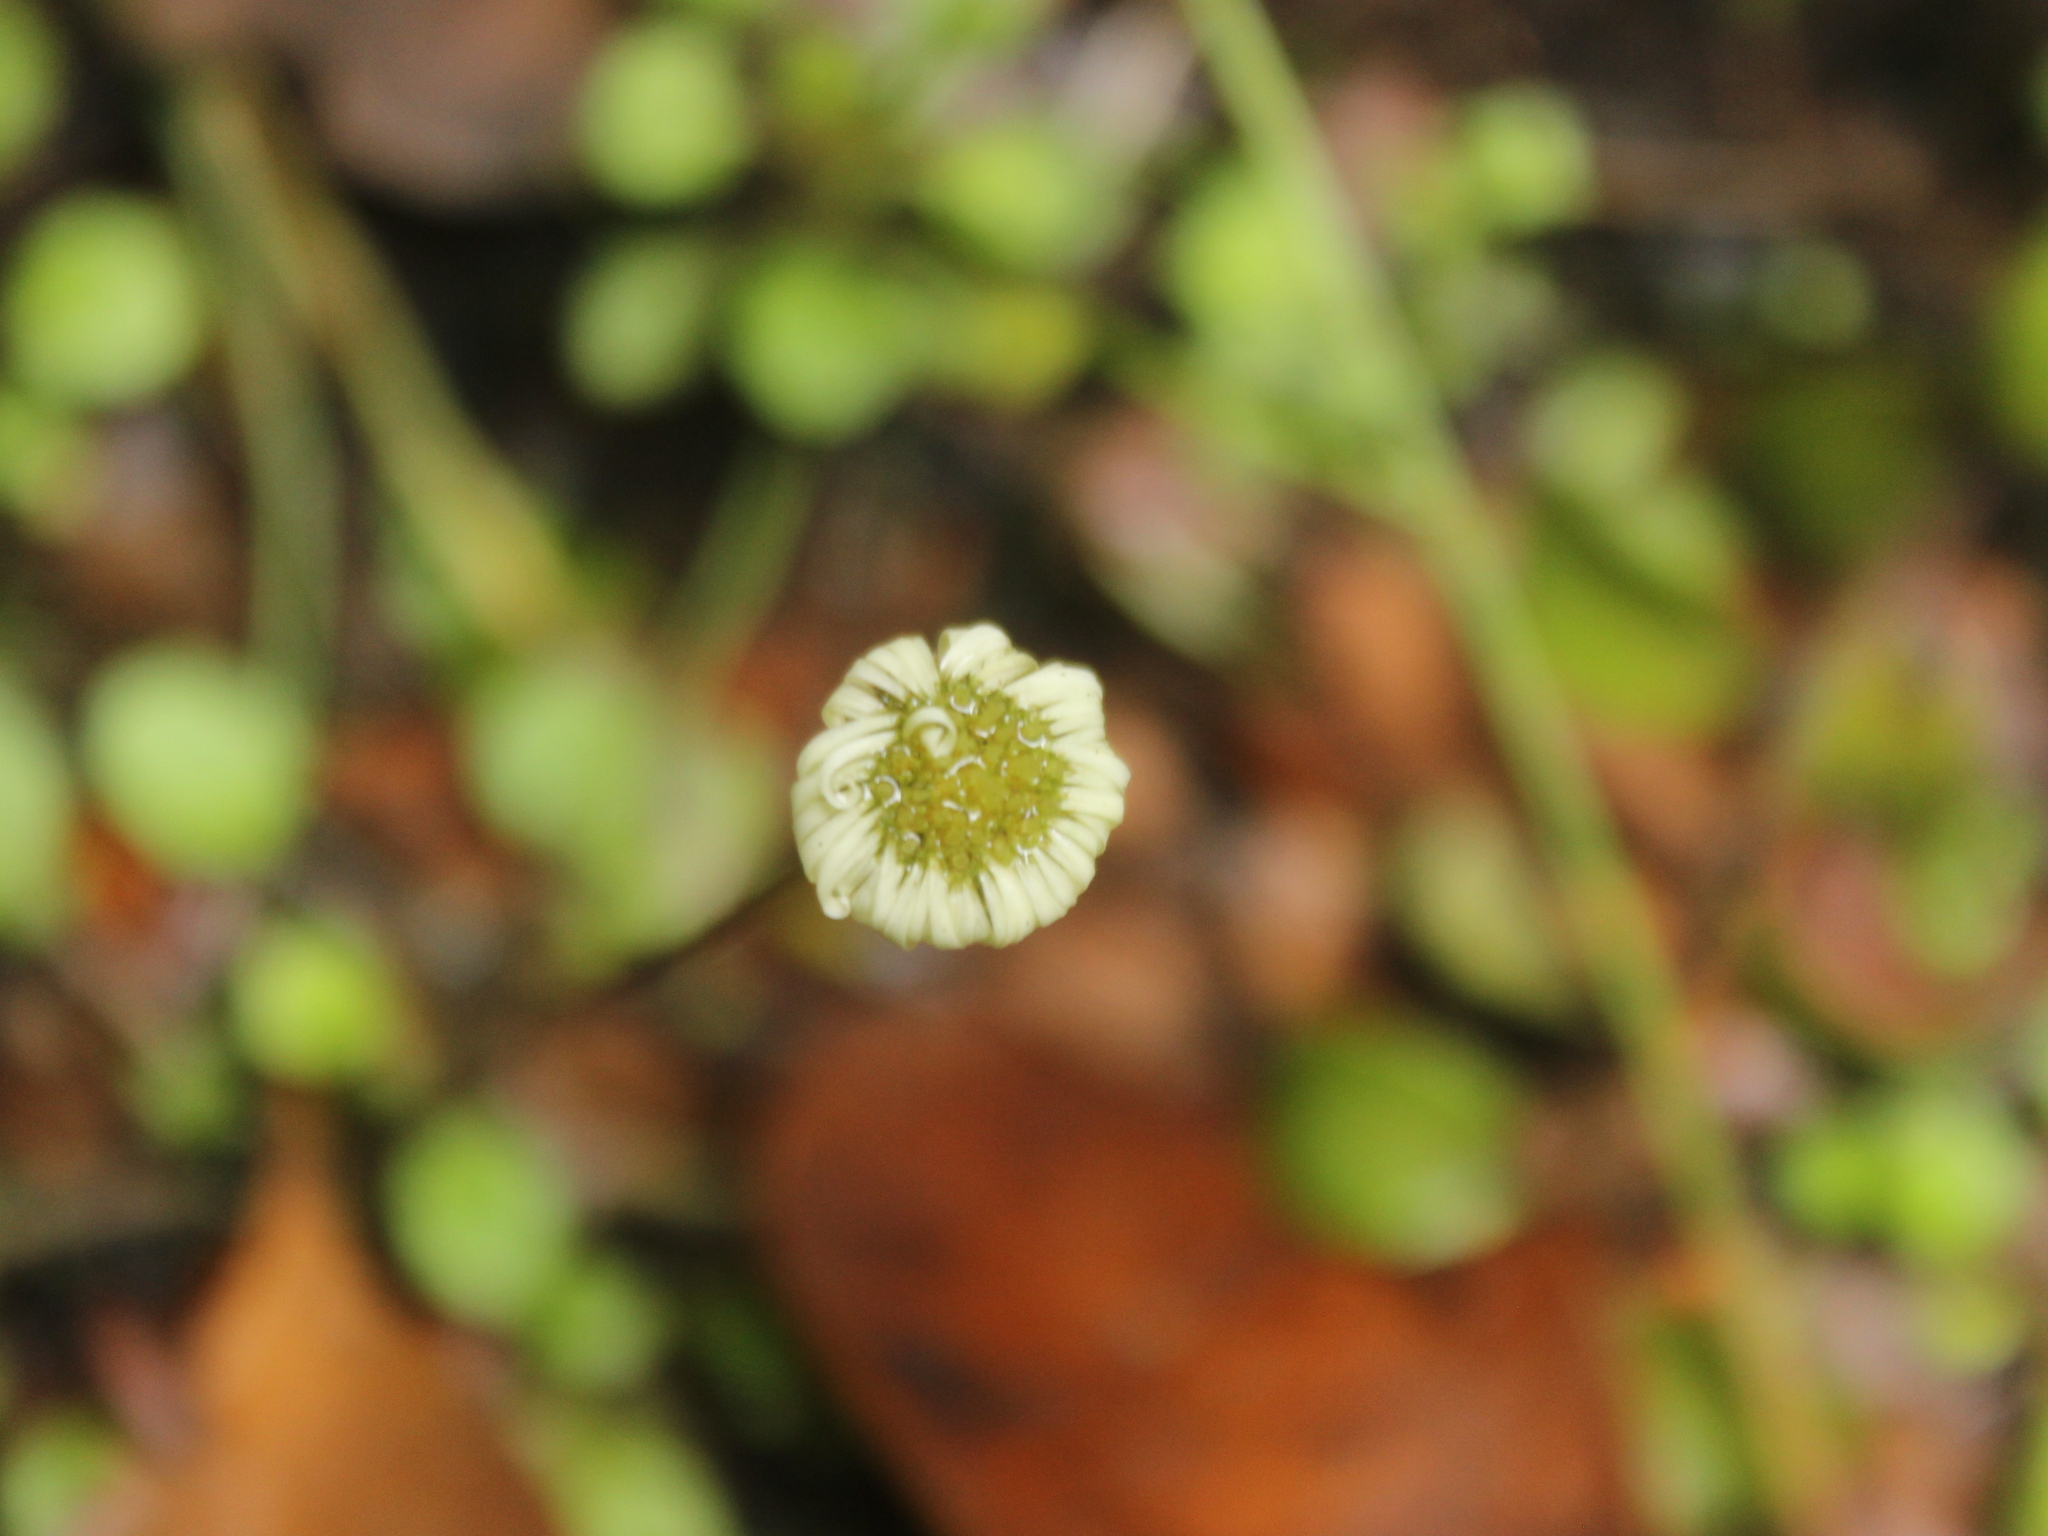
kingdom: Plantae
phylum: Tracheophyta
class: Magnoliopsida
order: Asterales
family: Asteraceae
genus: Lagenophora
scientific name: Lagenophora pumila
